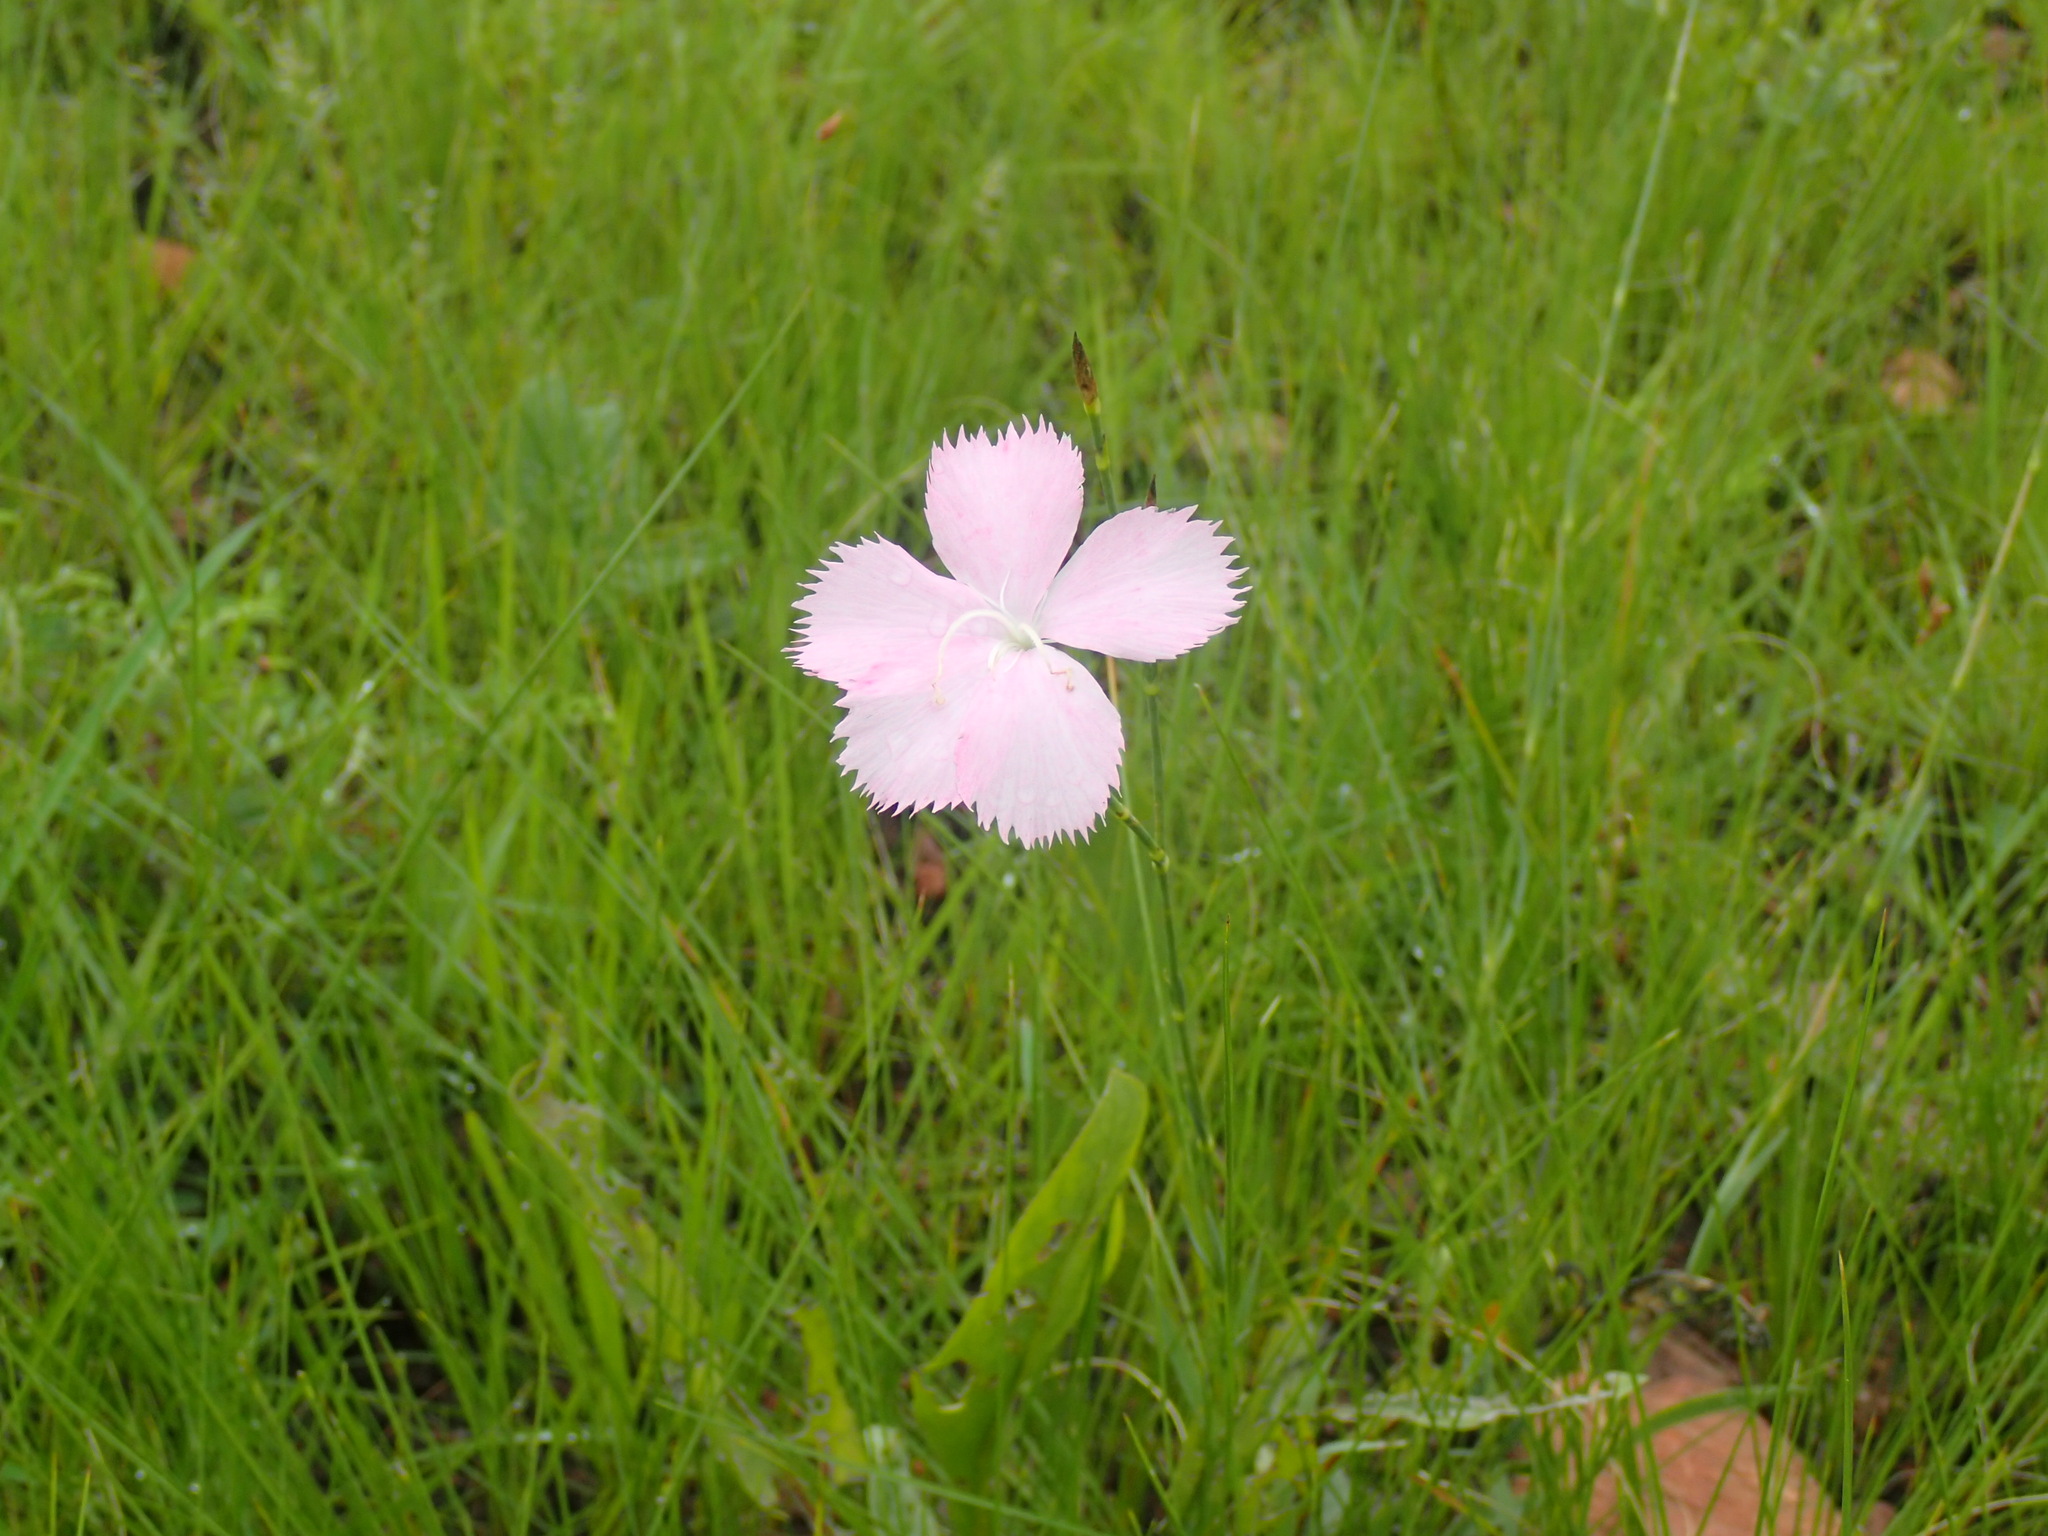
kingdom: Plantae
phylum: Tracheophyta
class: Magnoliopsida
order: Caryophyllales
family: Caryophyllaceae
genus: Dianthus
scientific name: Dianthus zeyheri
